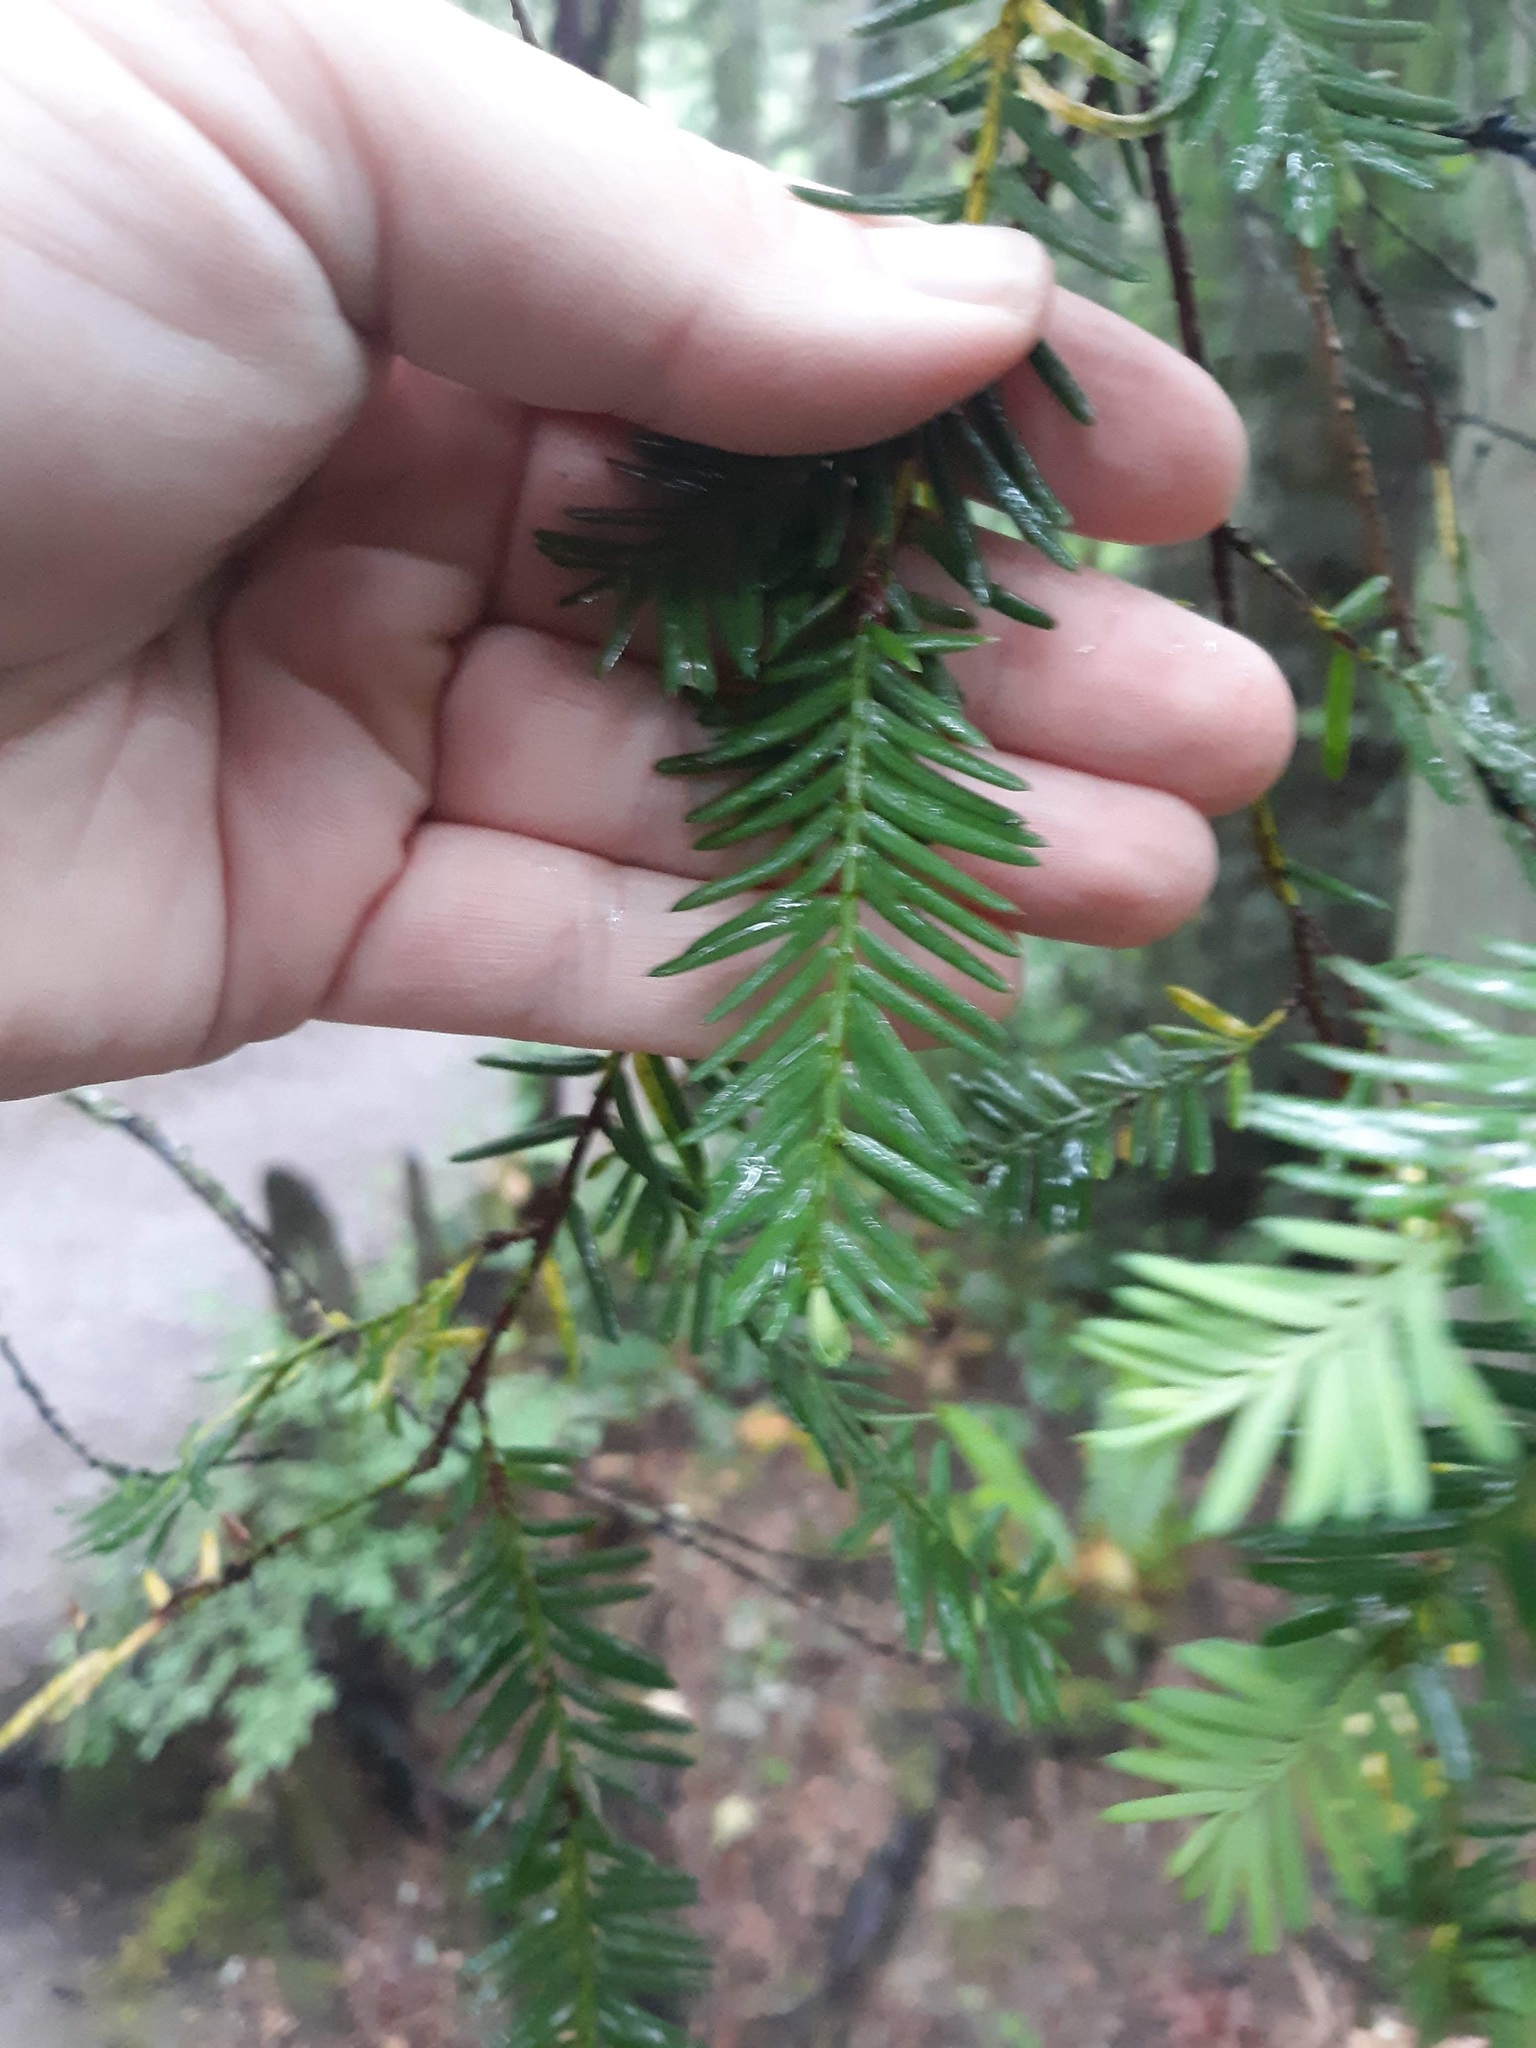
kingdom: Plantae
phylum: Tracheophyta
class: Pinopsida
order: Pinales
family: Taxaceae
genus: Taxus
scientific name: Taxus brevifolia
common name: Pacific yew
